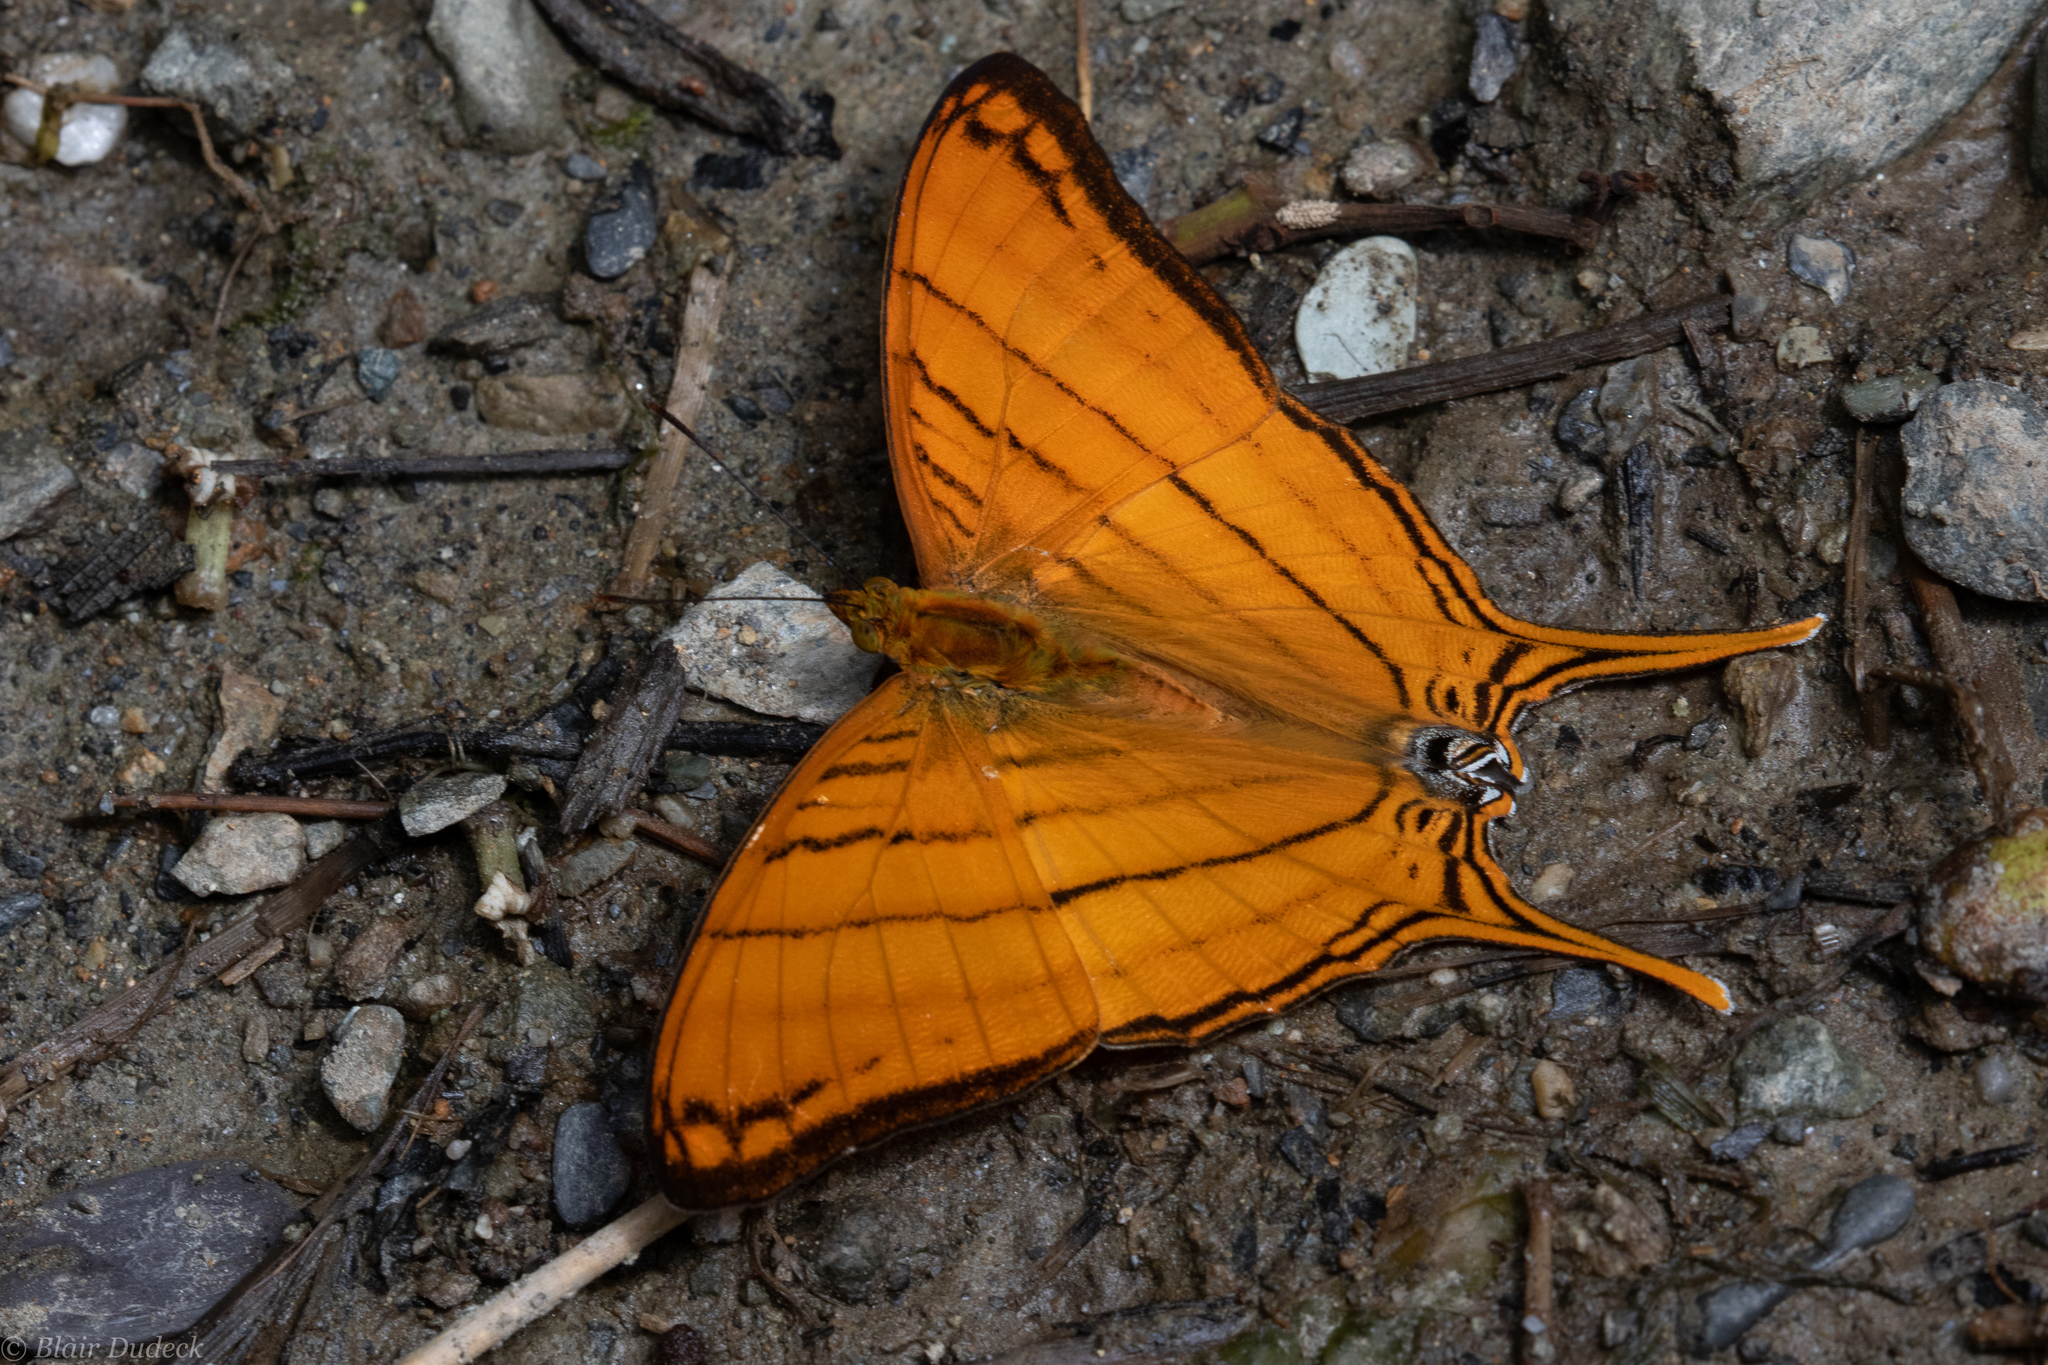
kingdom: Animalia
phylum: Arthropoda
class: Insecta
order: Lepidoptera
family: Nymphalidae
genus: Marpesia
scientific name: Marpesia berania
